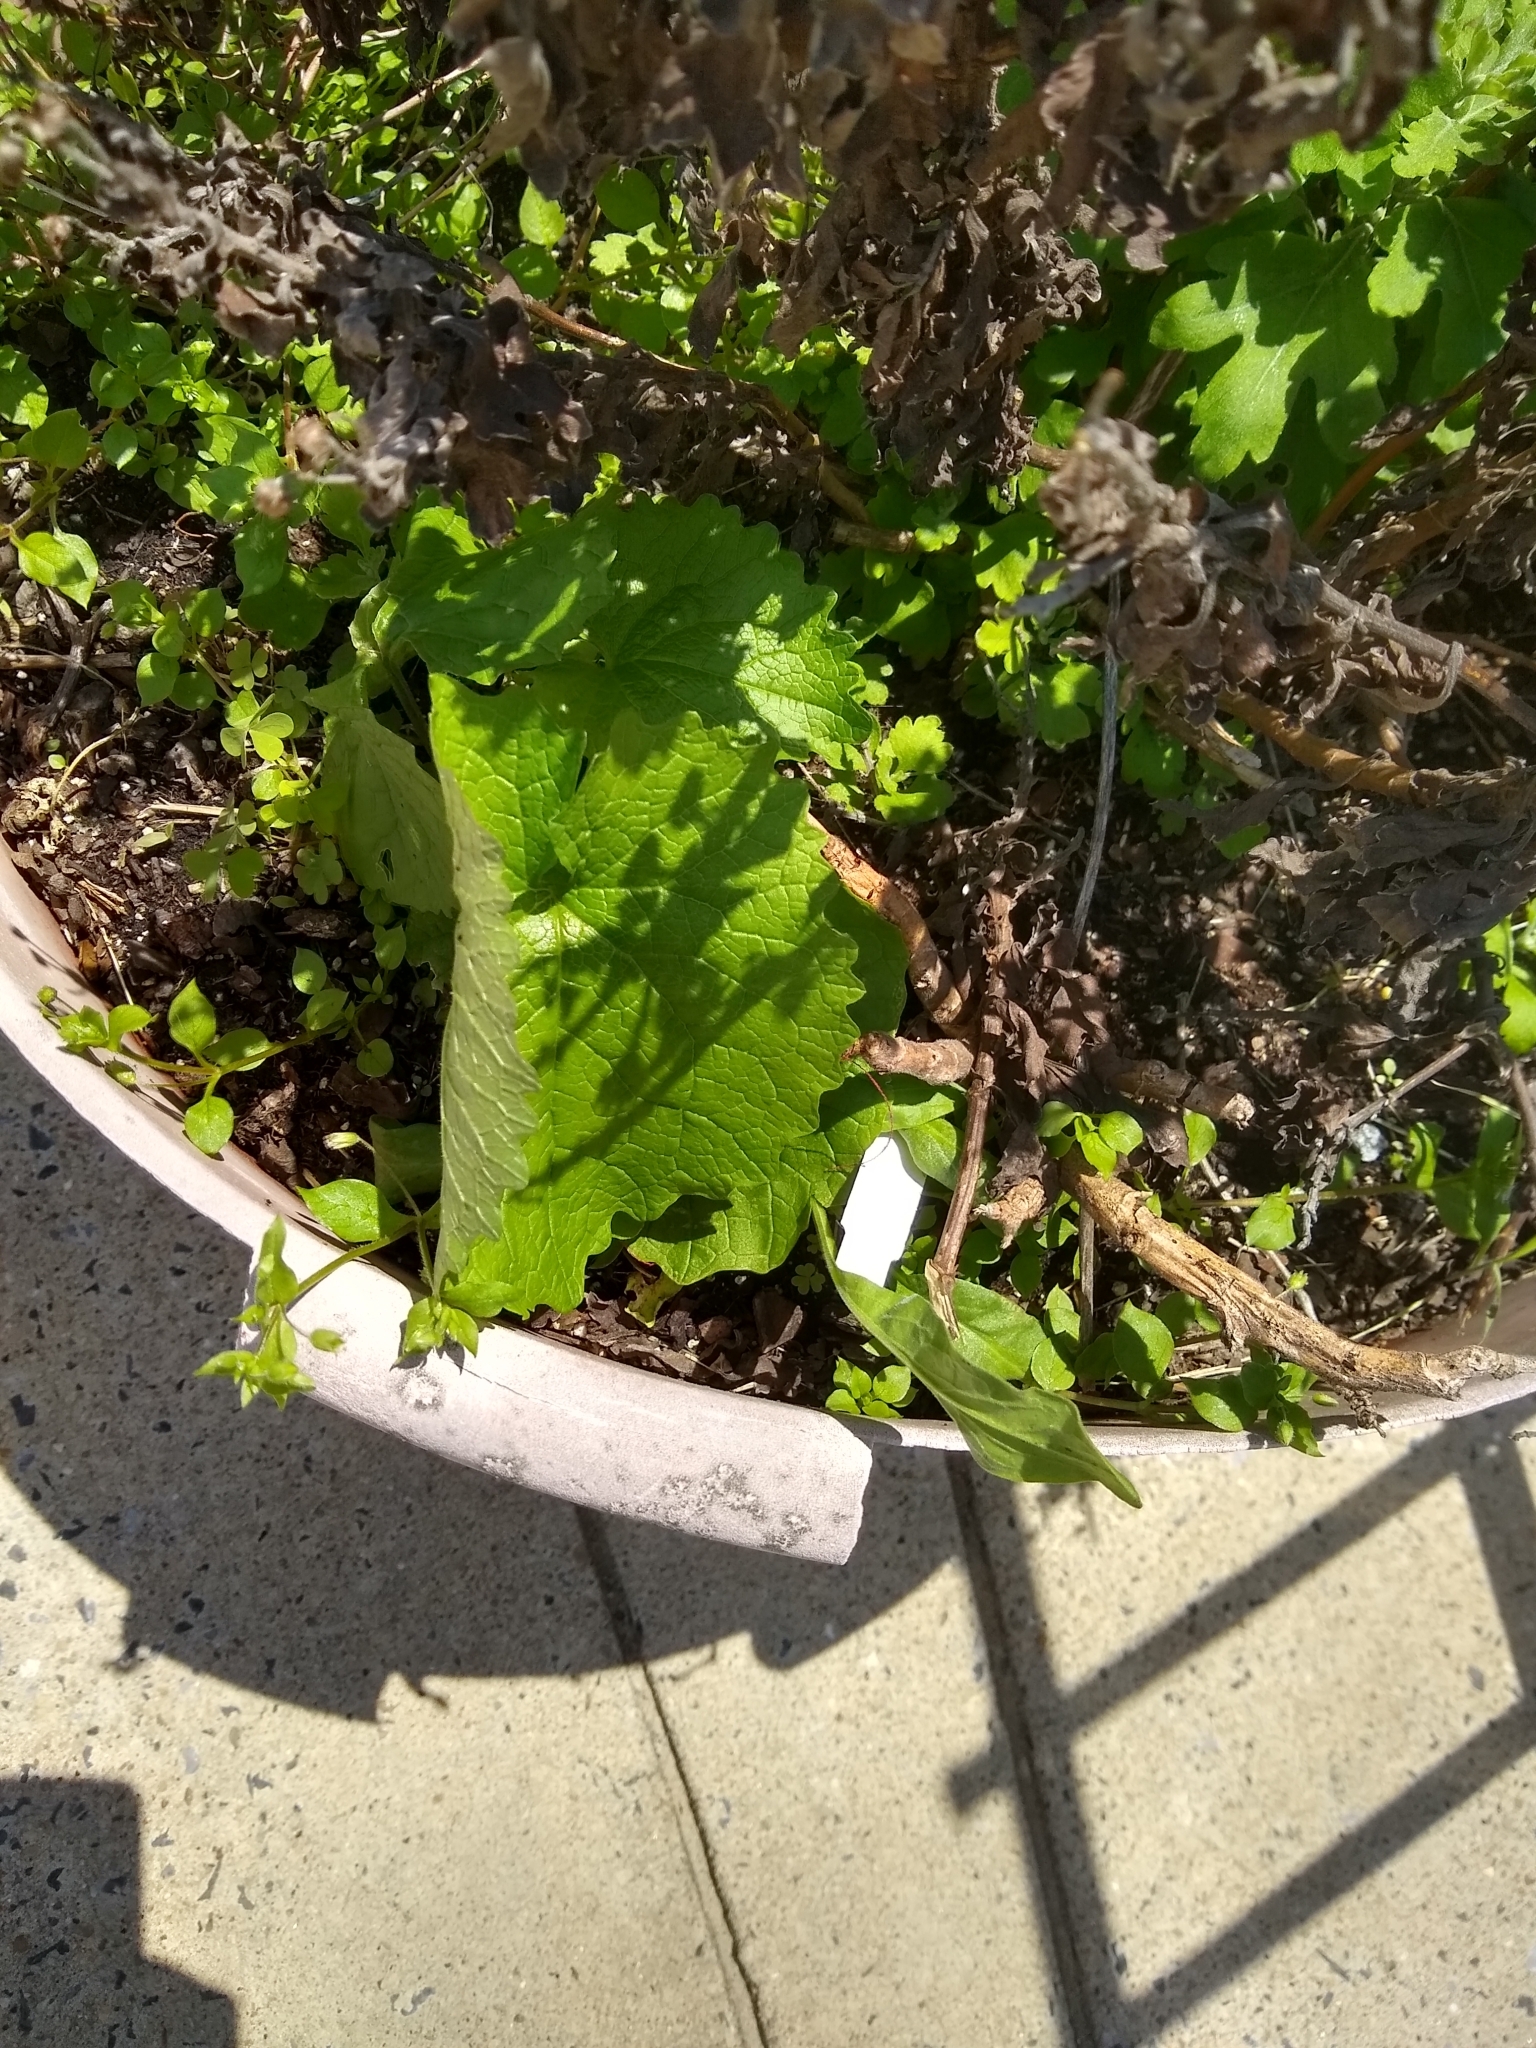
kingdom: Plantae
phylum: Tracheophyta
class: Magnoliopsida
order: Brassicales
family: Brassicaceae
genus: Alliaria
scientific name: Alliaria petiolata
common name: Garlic mustard
